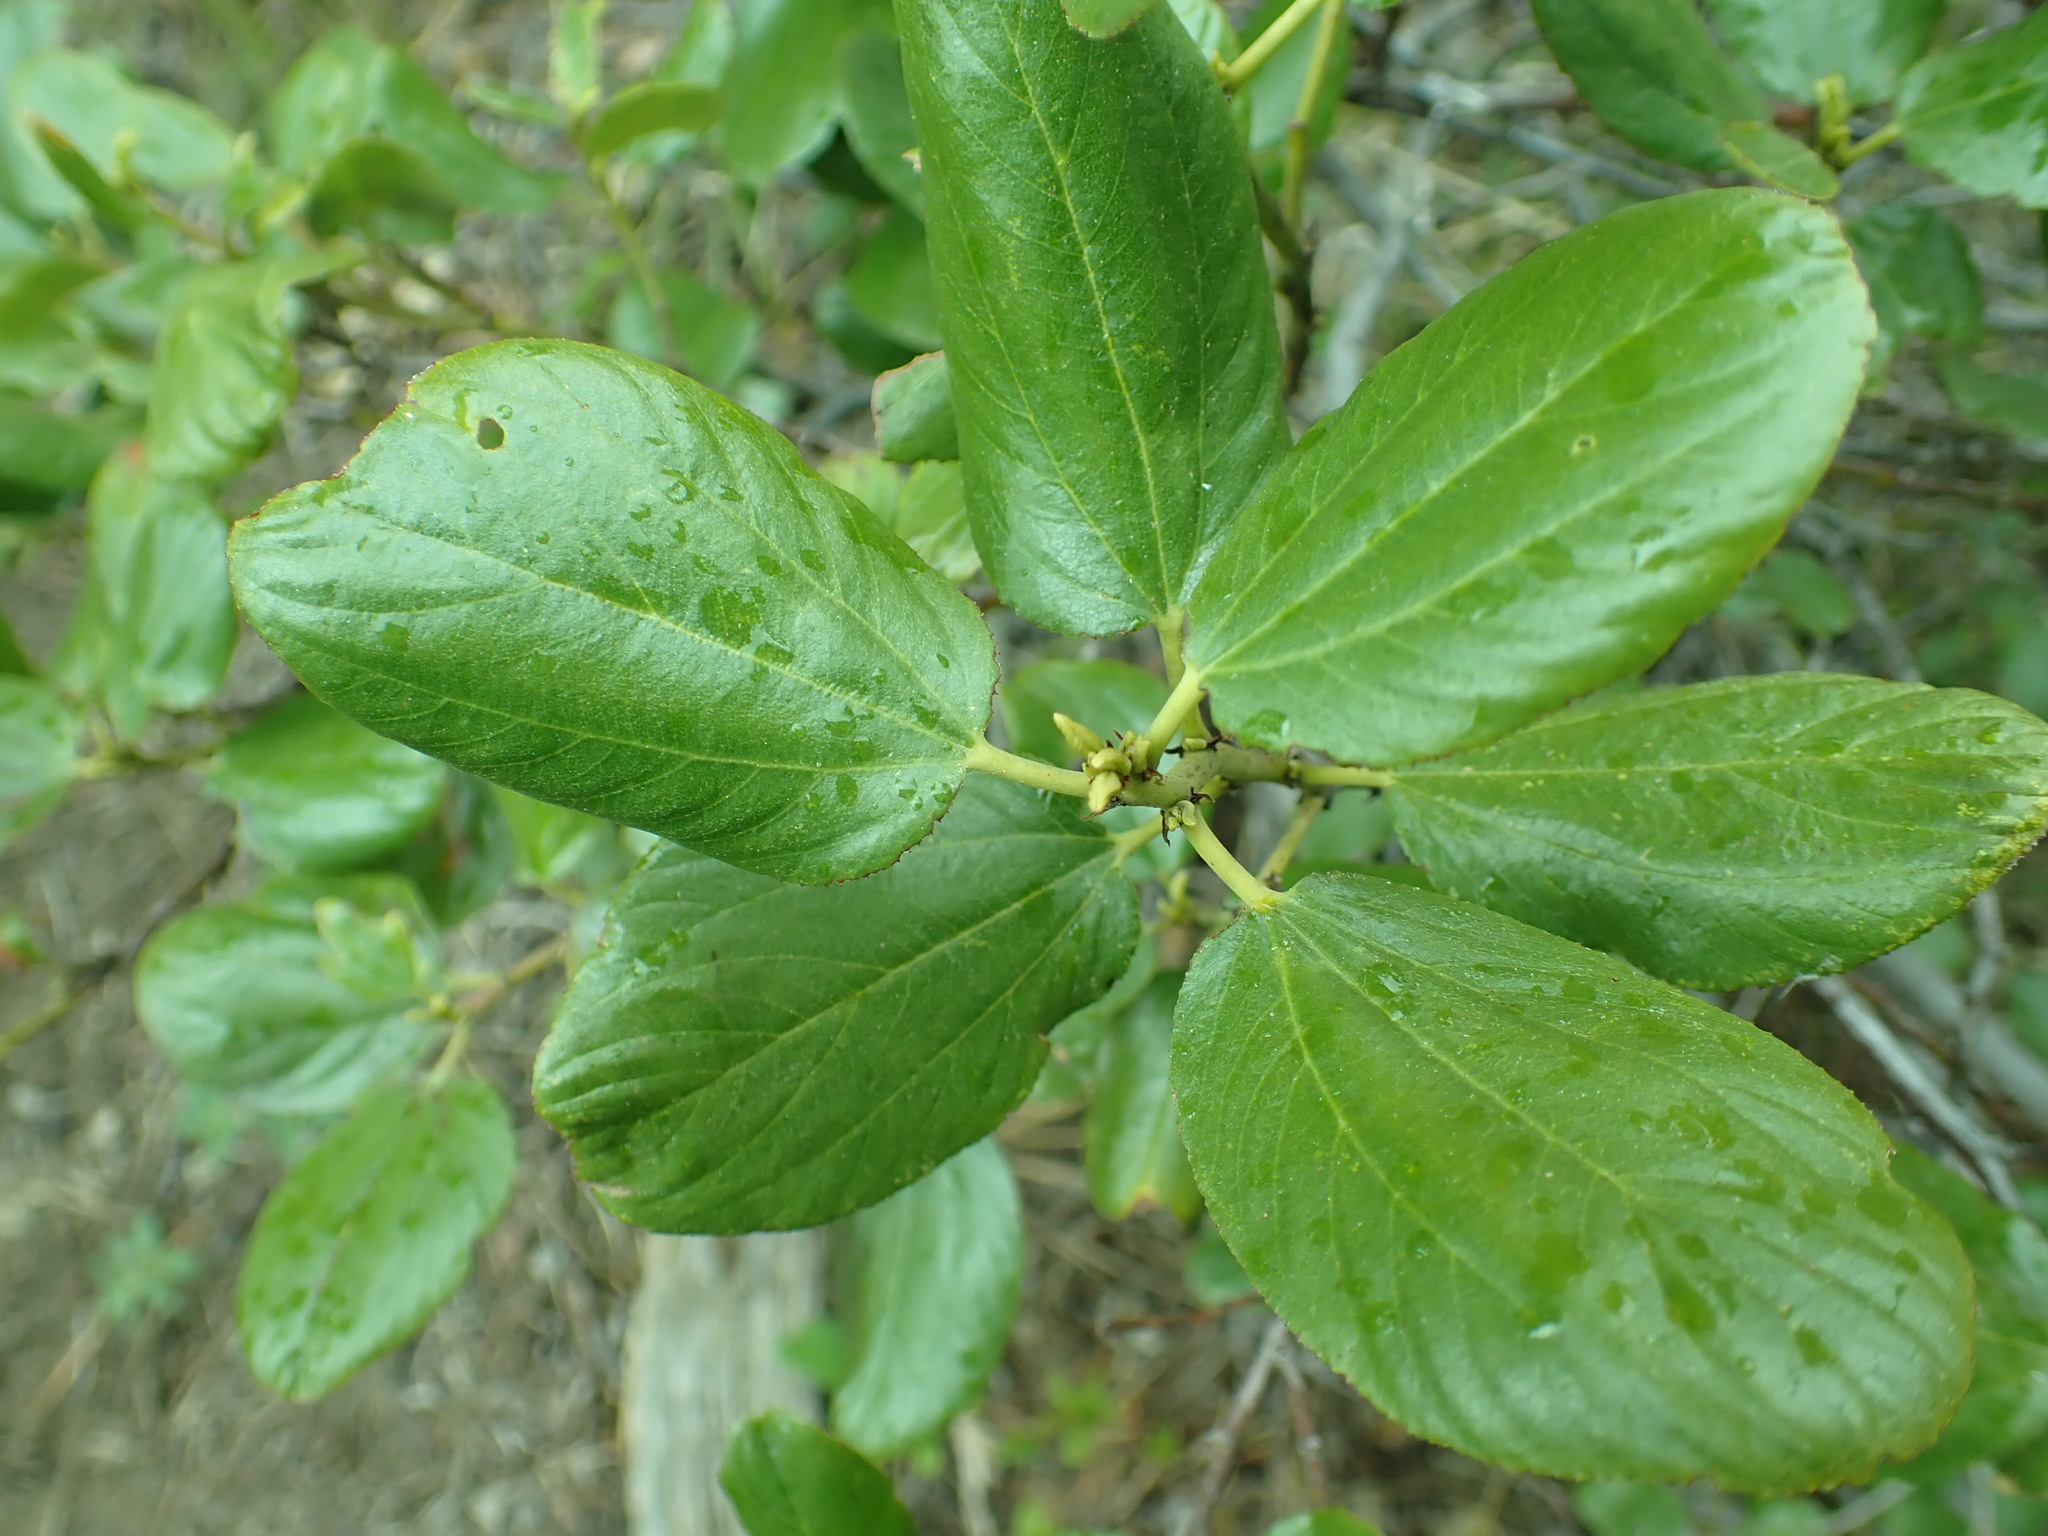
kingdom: Plantae
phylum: Tracheophyta
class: Magnoliopsida
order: Rosales
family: Rhamnaceae
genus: Ceanothus
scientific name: Ceanothus velutinus
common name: Snowbrush
